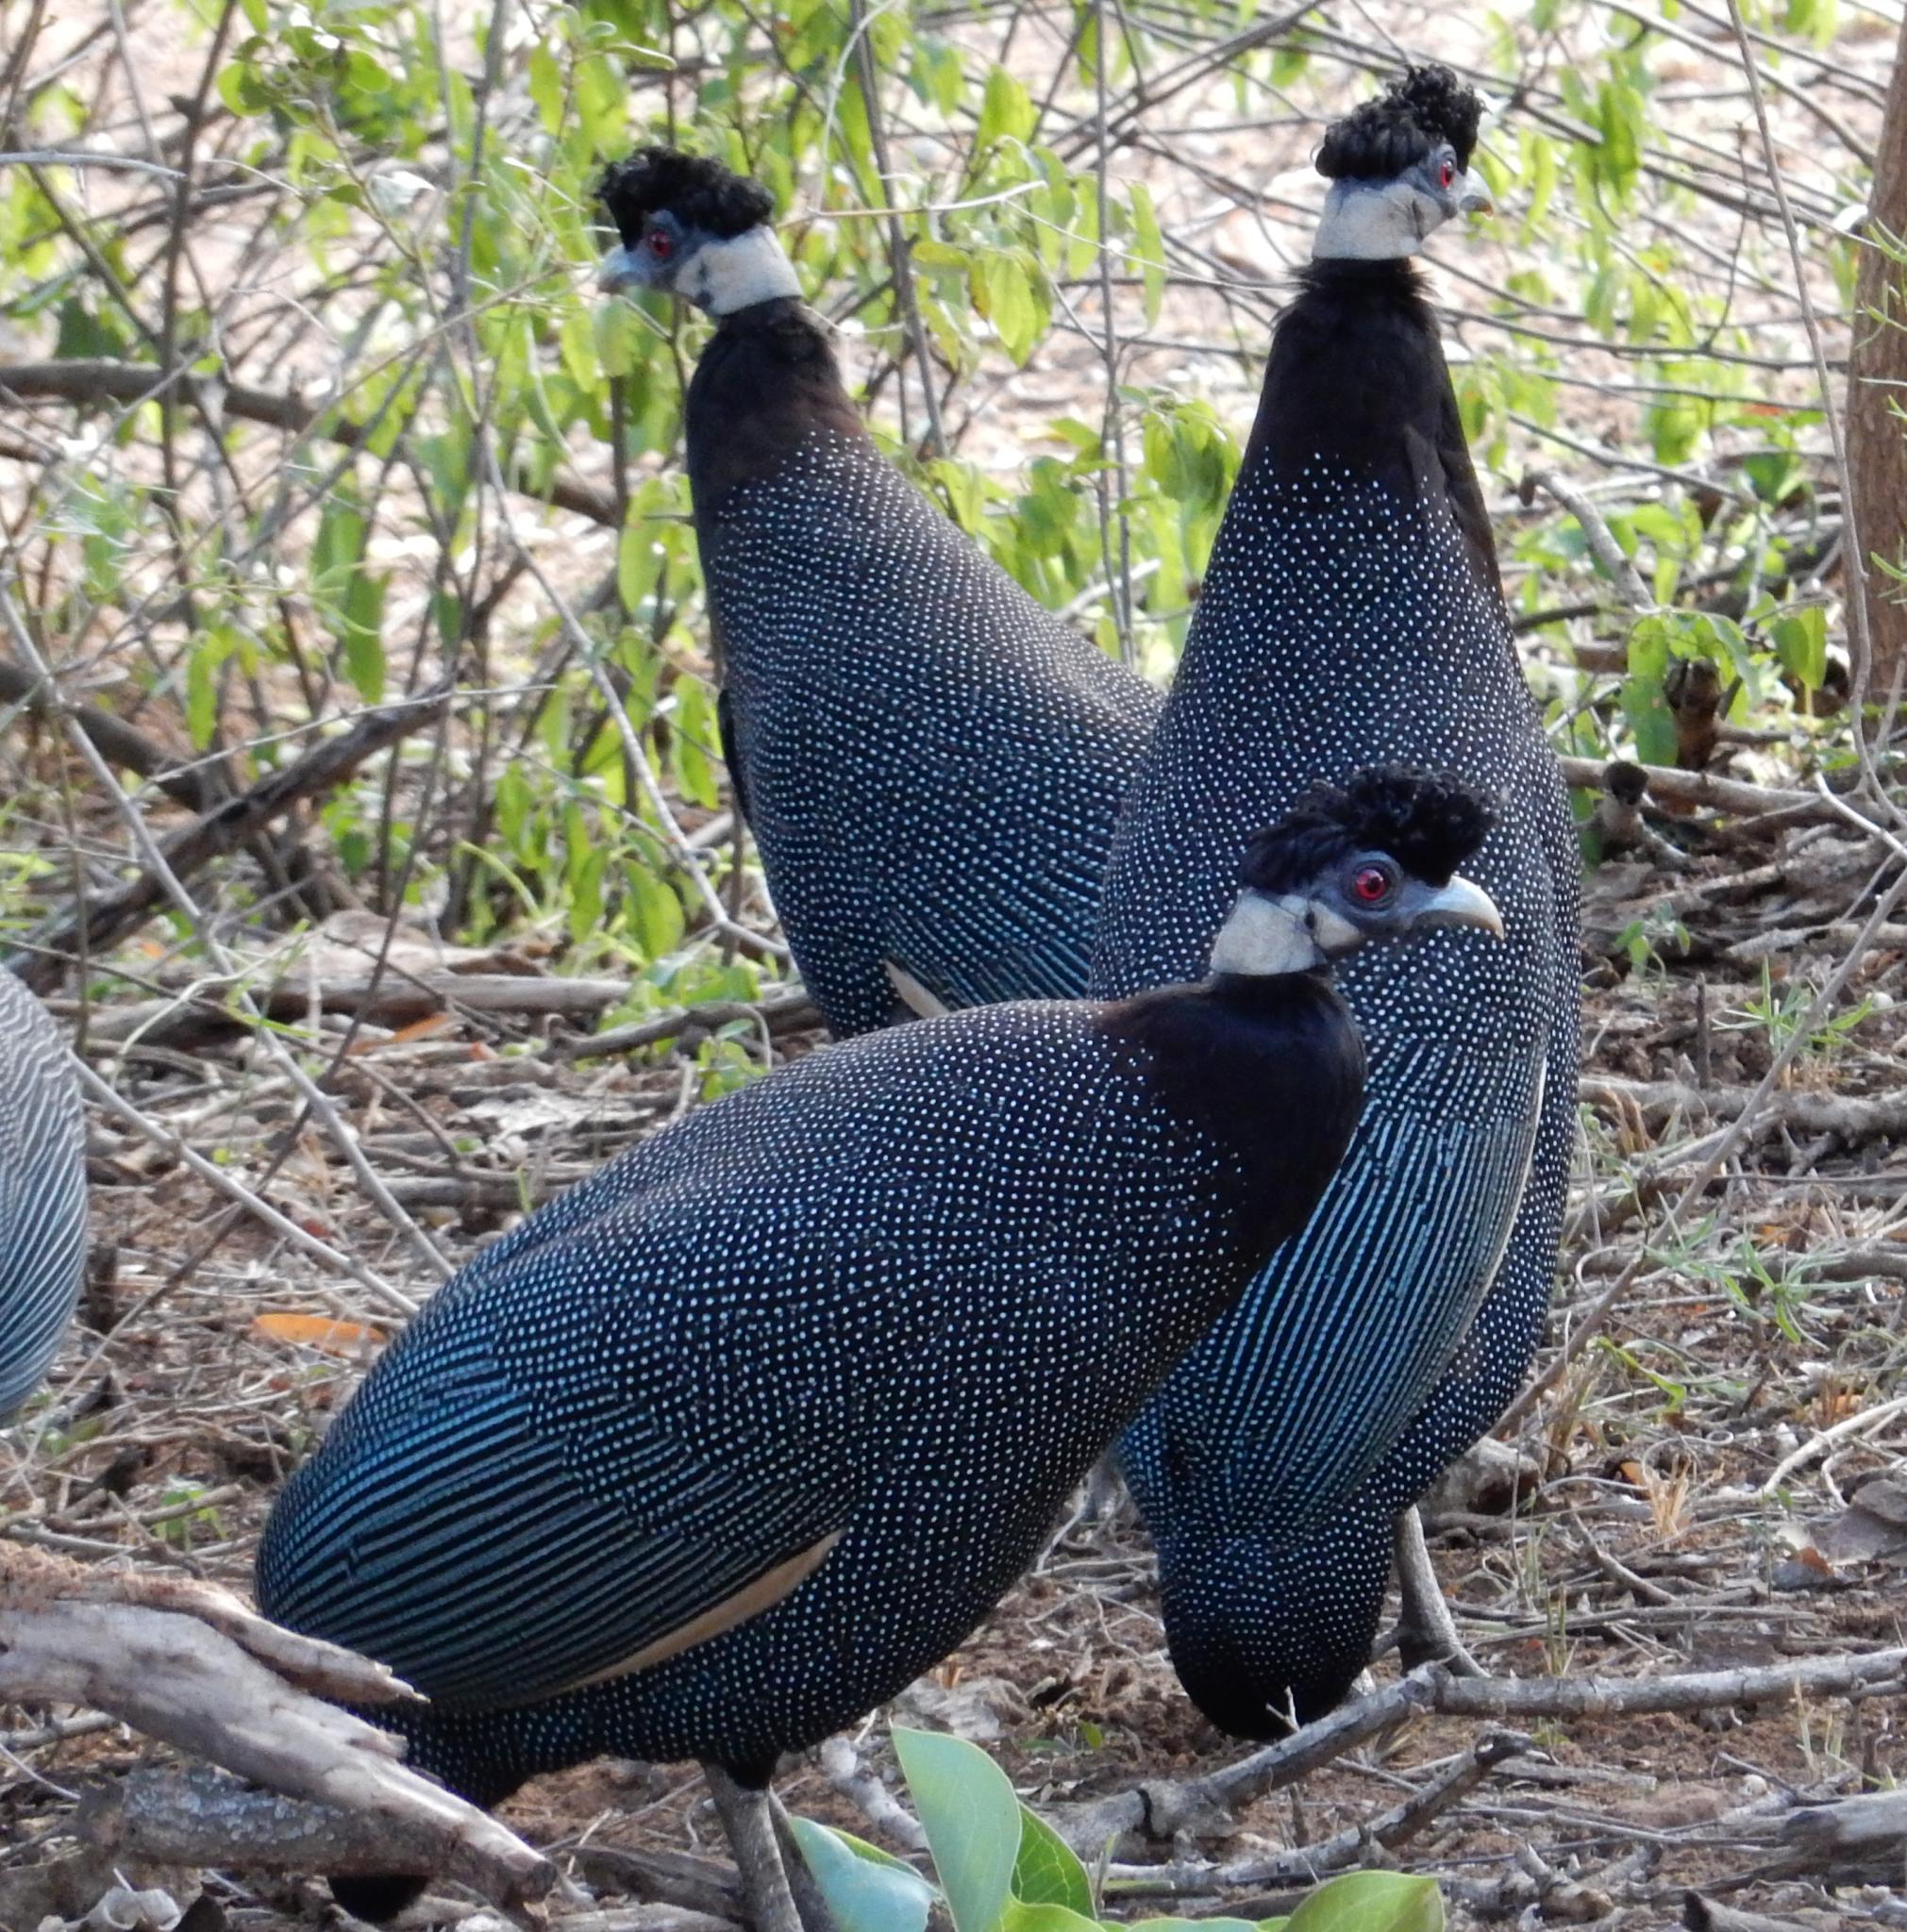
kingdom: Animalia
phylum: Chordata
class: Aves
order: Galliformes
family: Numididae
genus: Guttera
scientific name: Guttera pucherani
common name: Crested guineafowl
